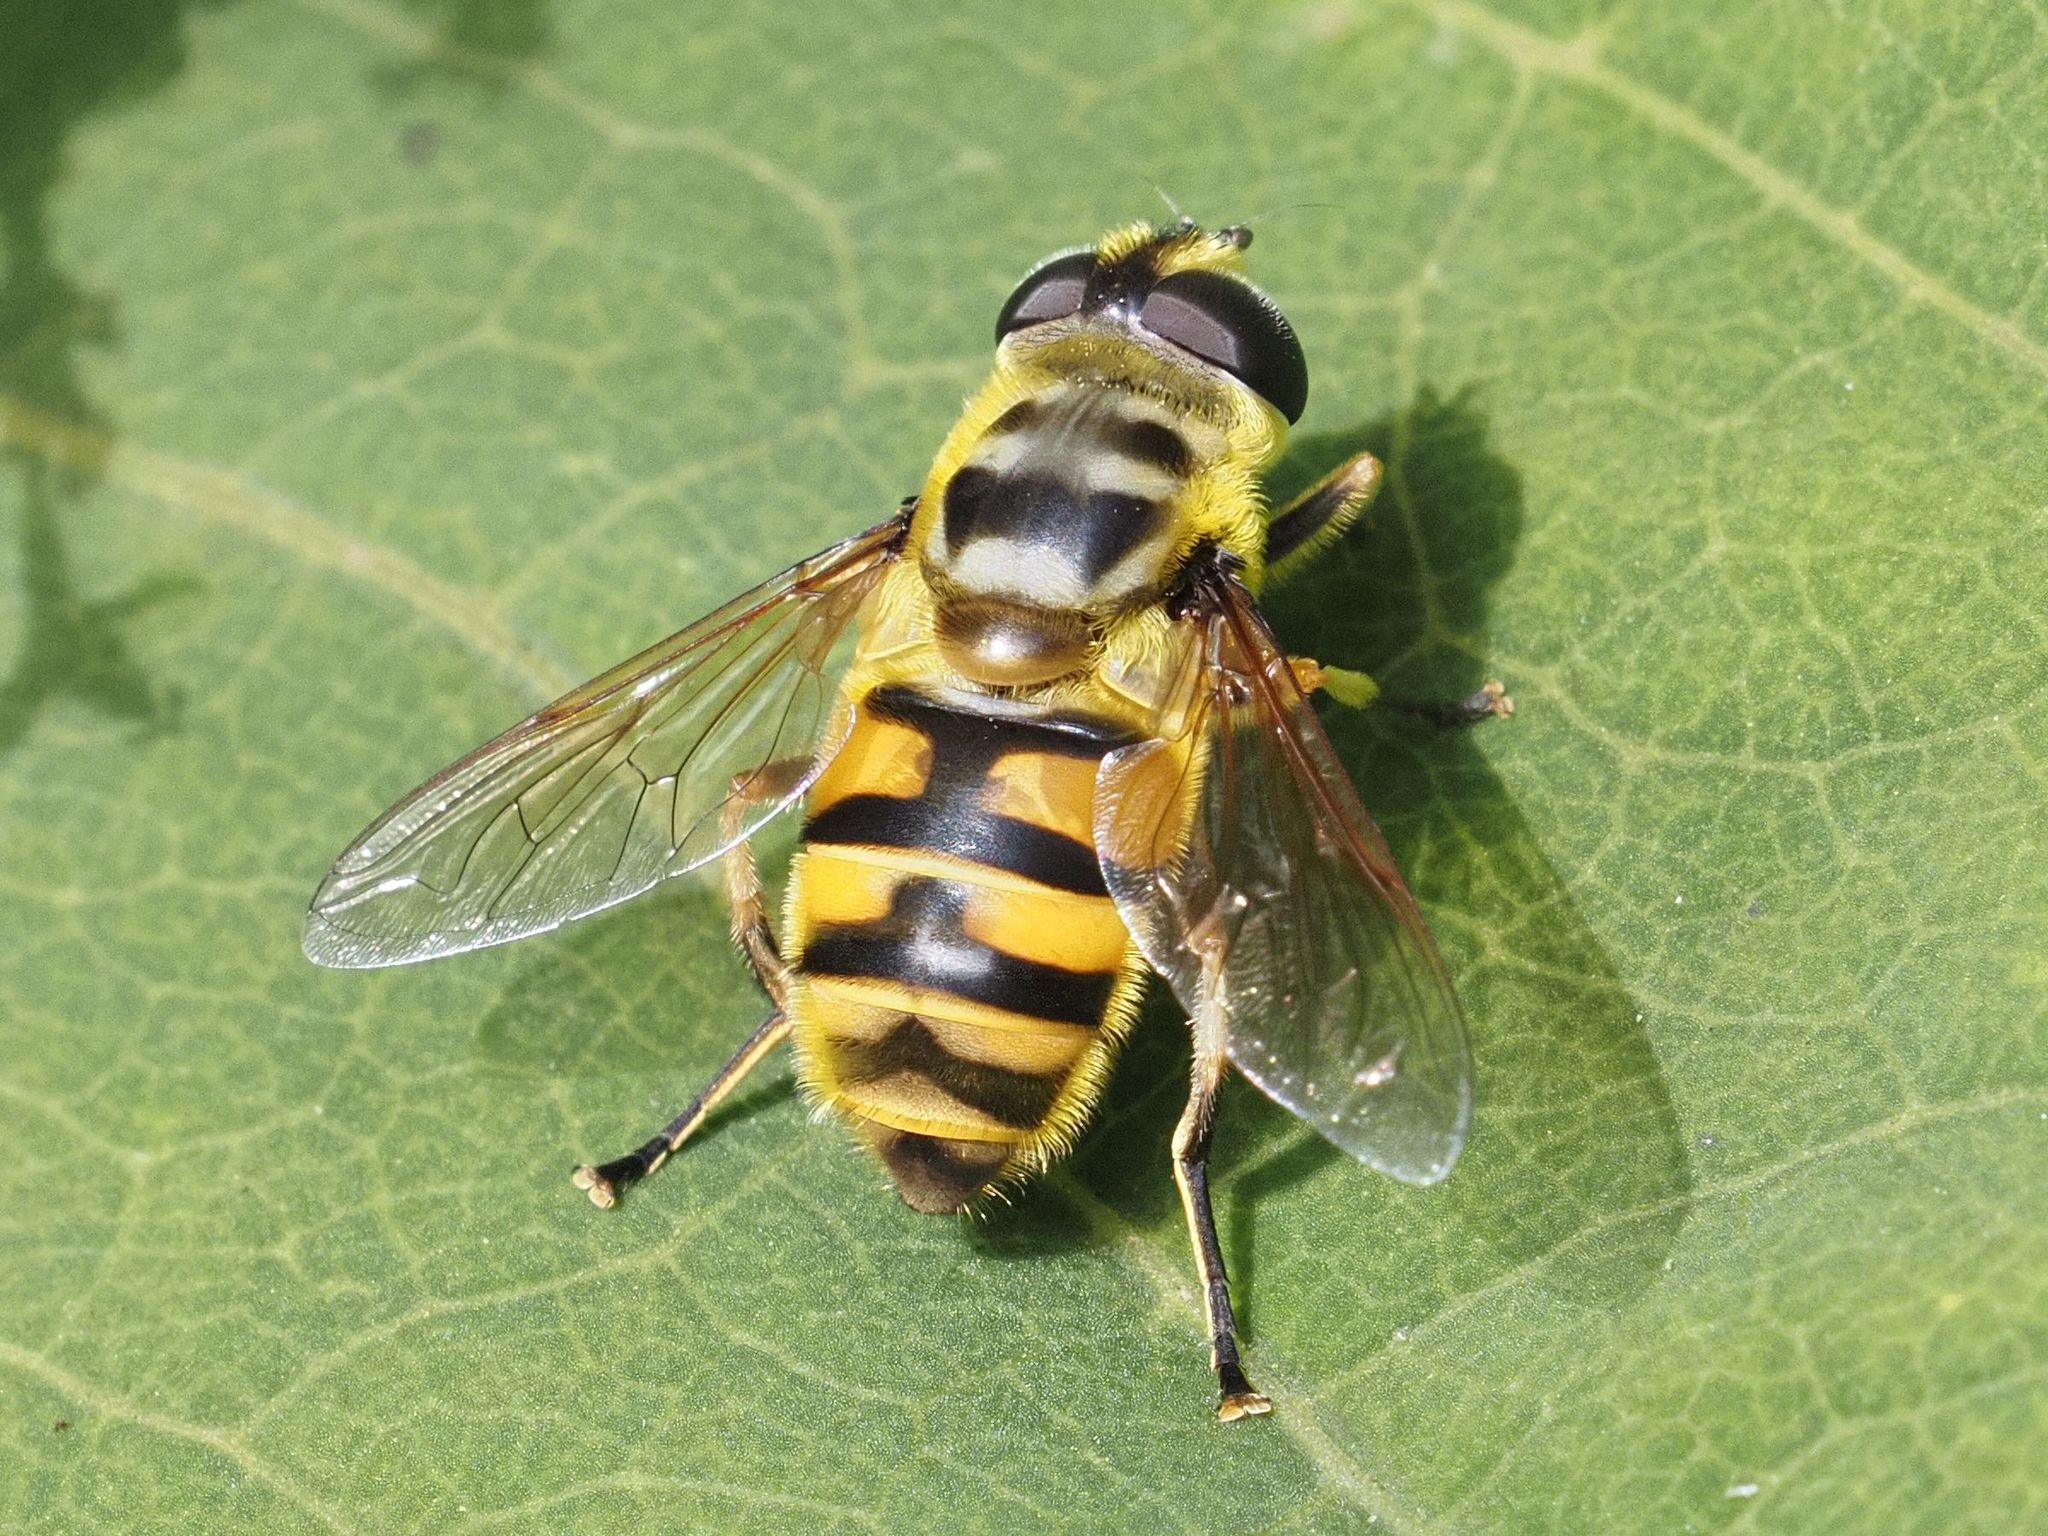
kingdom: Animalia
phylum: Arthropoda
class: Insecta
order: Diptera
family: Syrphidae
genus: Myathropa
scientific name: Myathropa florea
